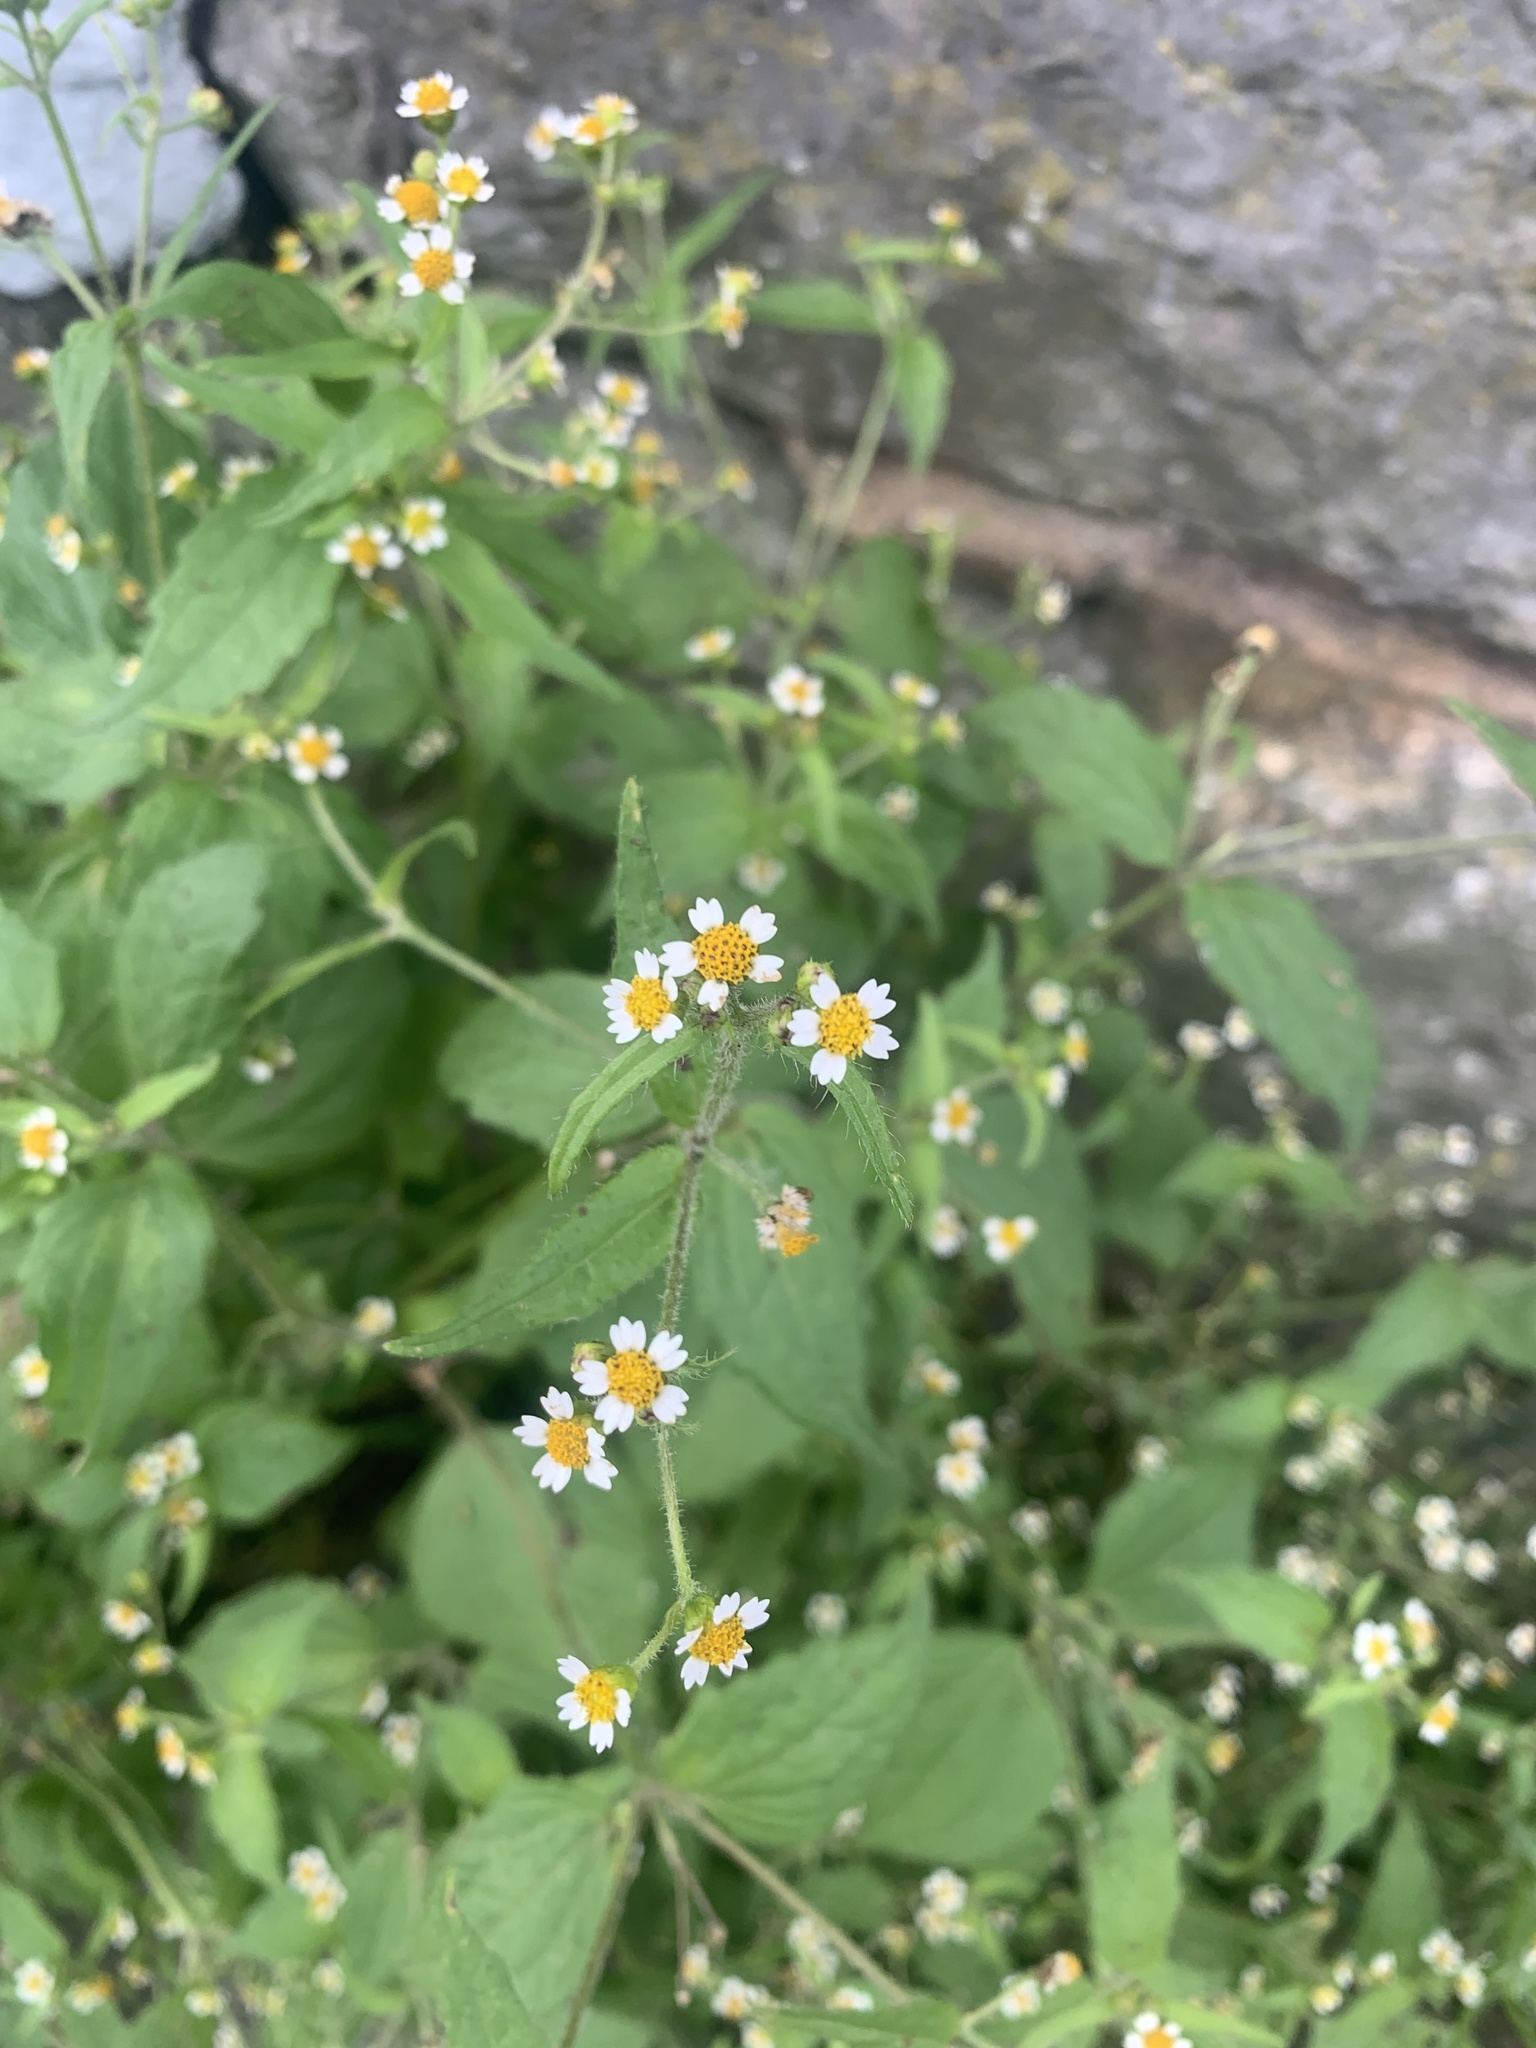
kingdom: Plantae
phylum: Tracheophyta
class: Magnoliopsida
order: Asterales
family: Asteraceae
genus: Galinsoga
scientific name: Galinsoga quadriradiata
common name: Shaggy soldier
